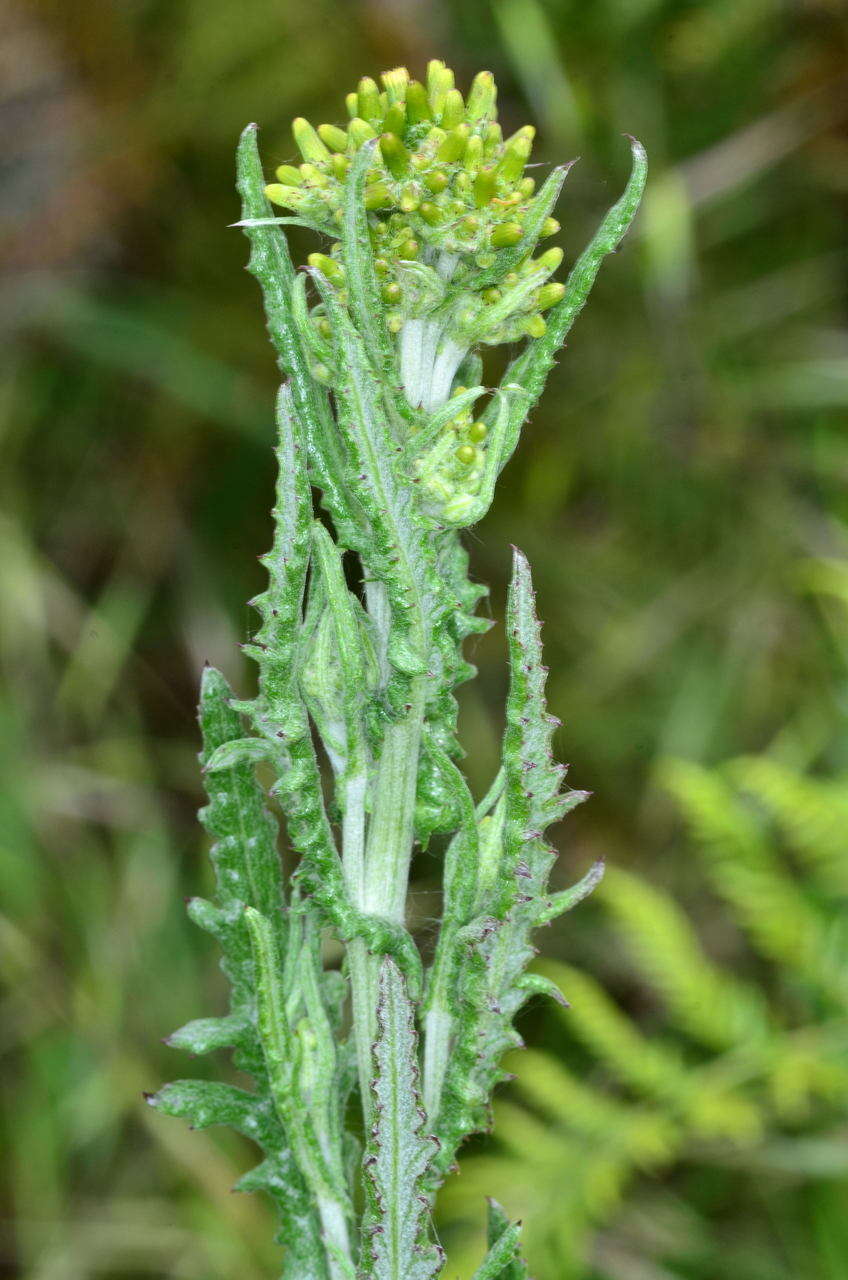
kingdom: Plantae
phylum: Tracheophyta
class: Magnoliopsida
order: Asterales
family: Asteraceae
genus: Senecio
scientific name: Senecio glomeratus
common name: Cutleaf burnweed
